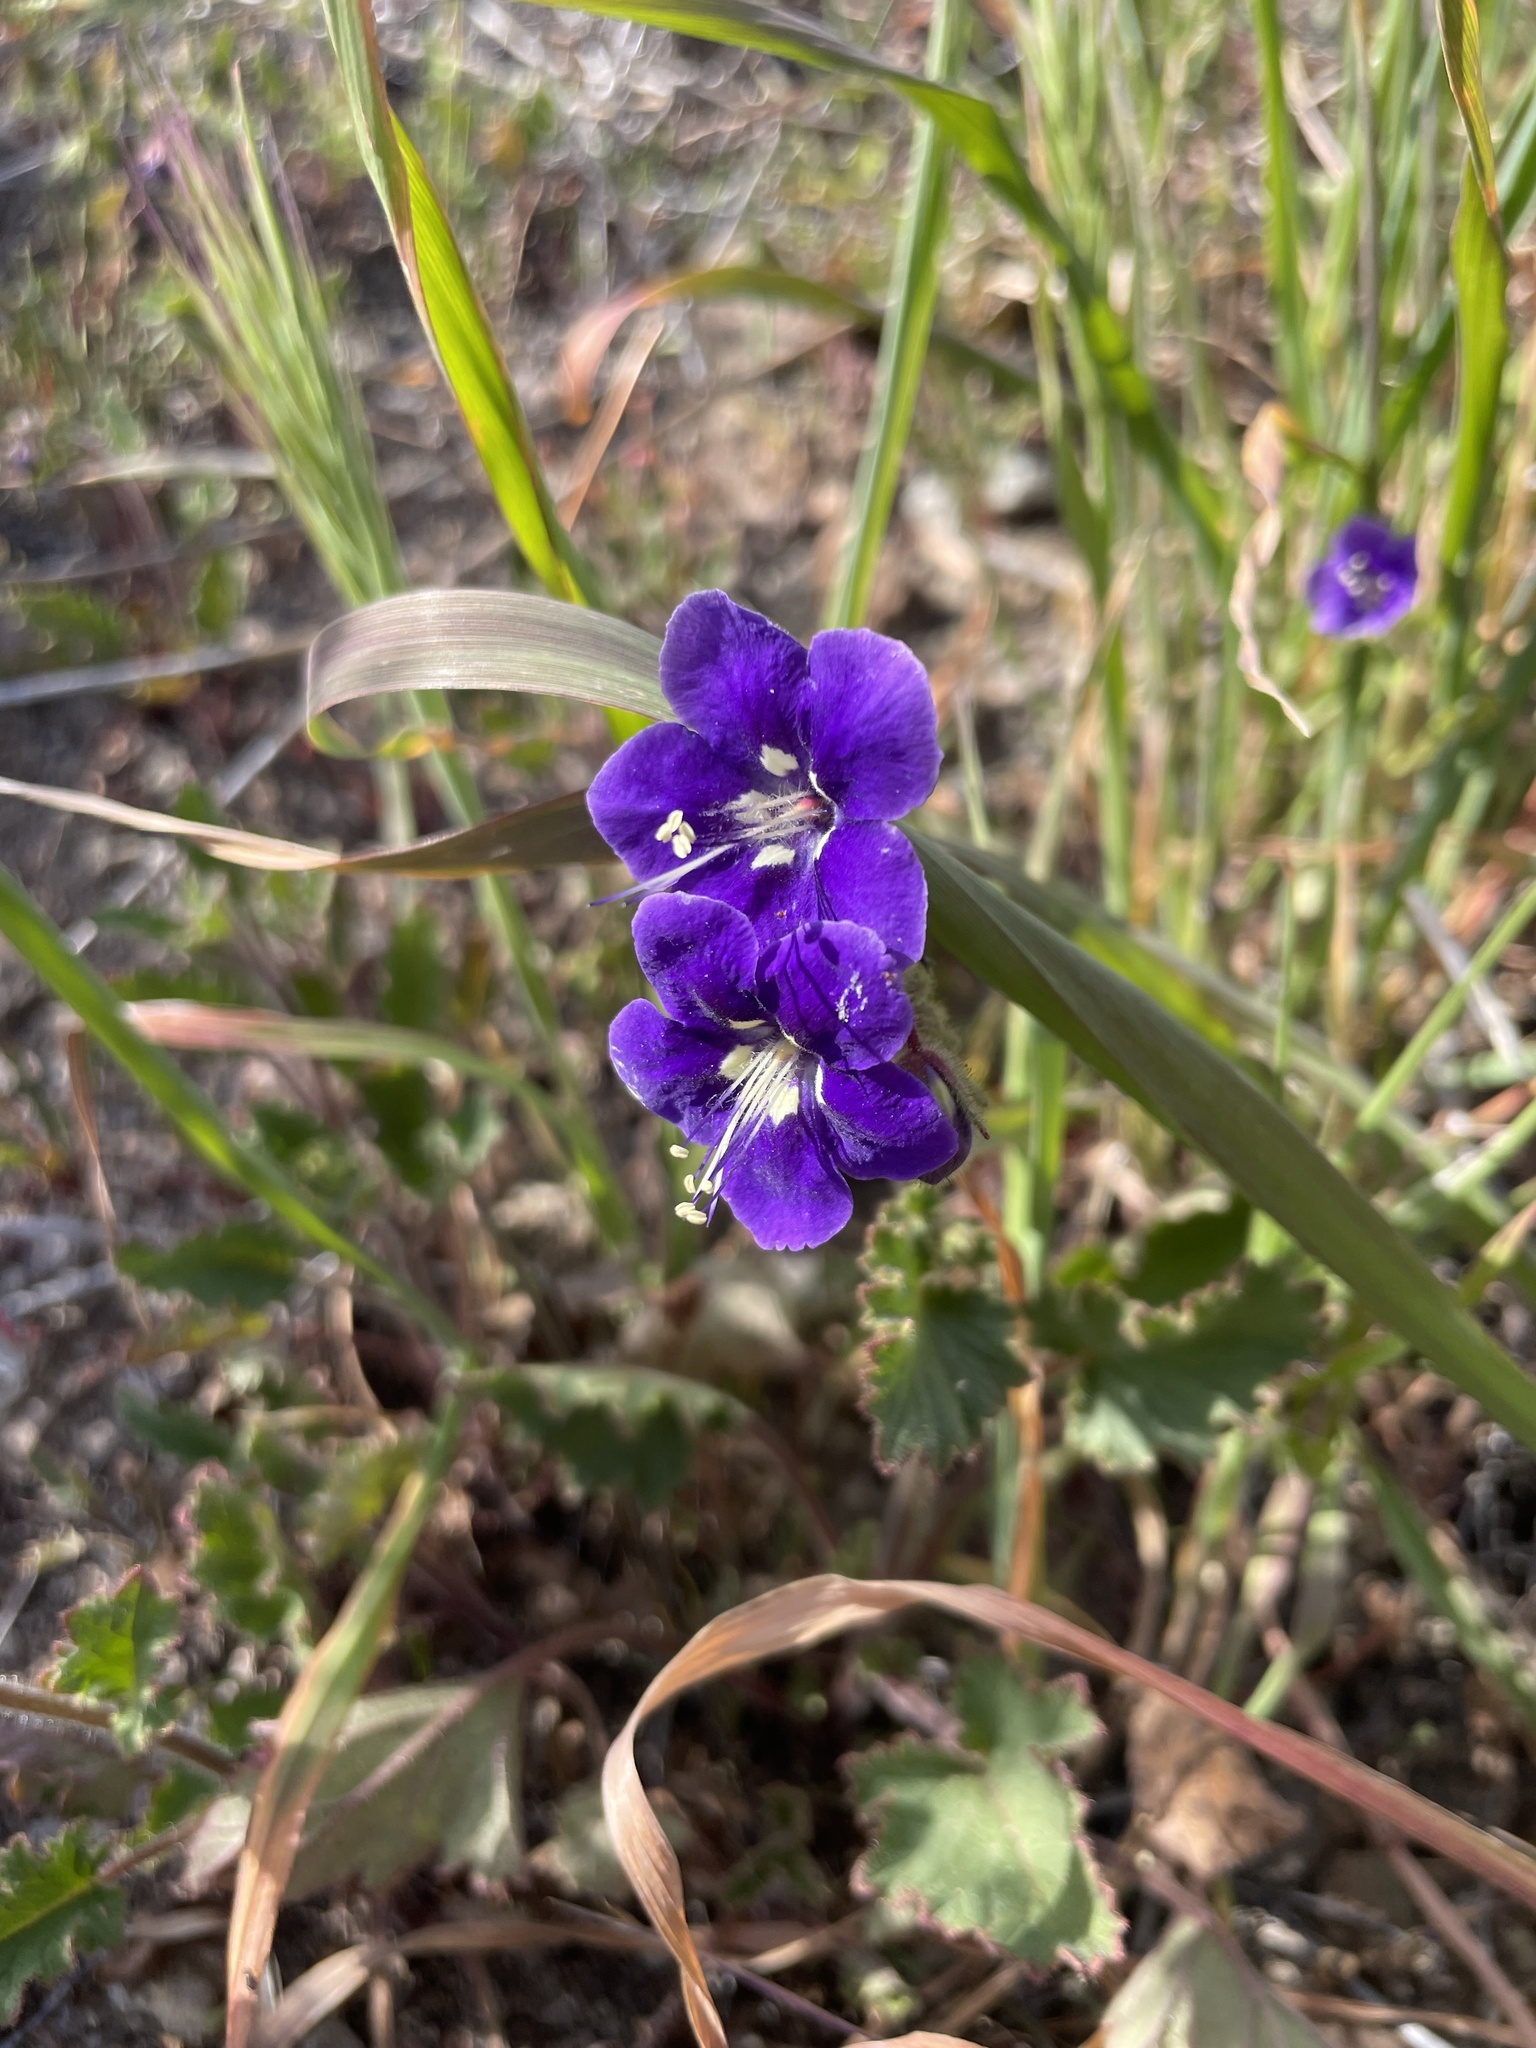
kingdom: Plantae
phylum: Tracheophyta
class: Magnoliopsida
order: Boraginales
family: Hydrophyllaceae
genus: Phacelia
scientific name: Phacelia parryi
